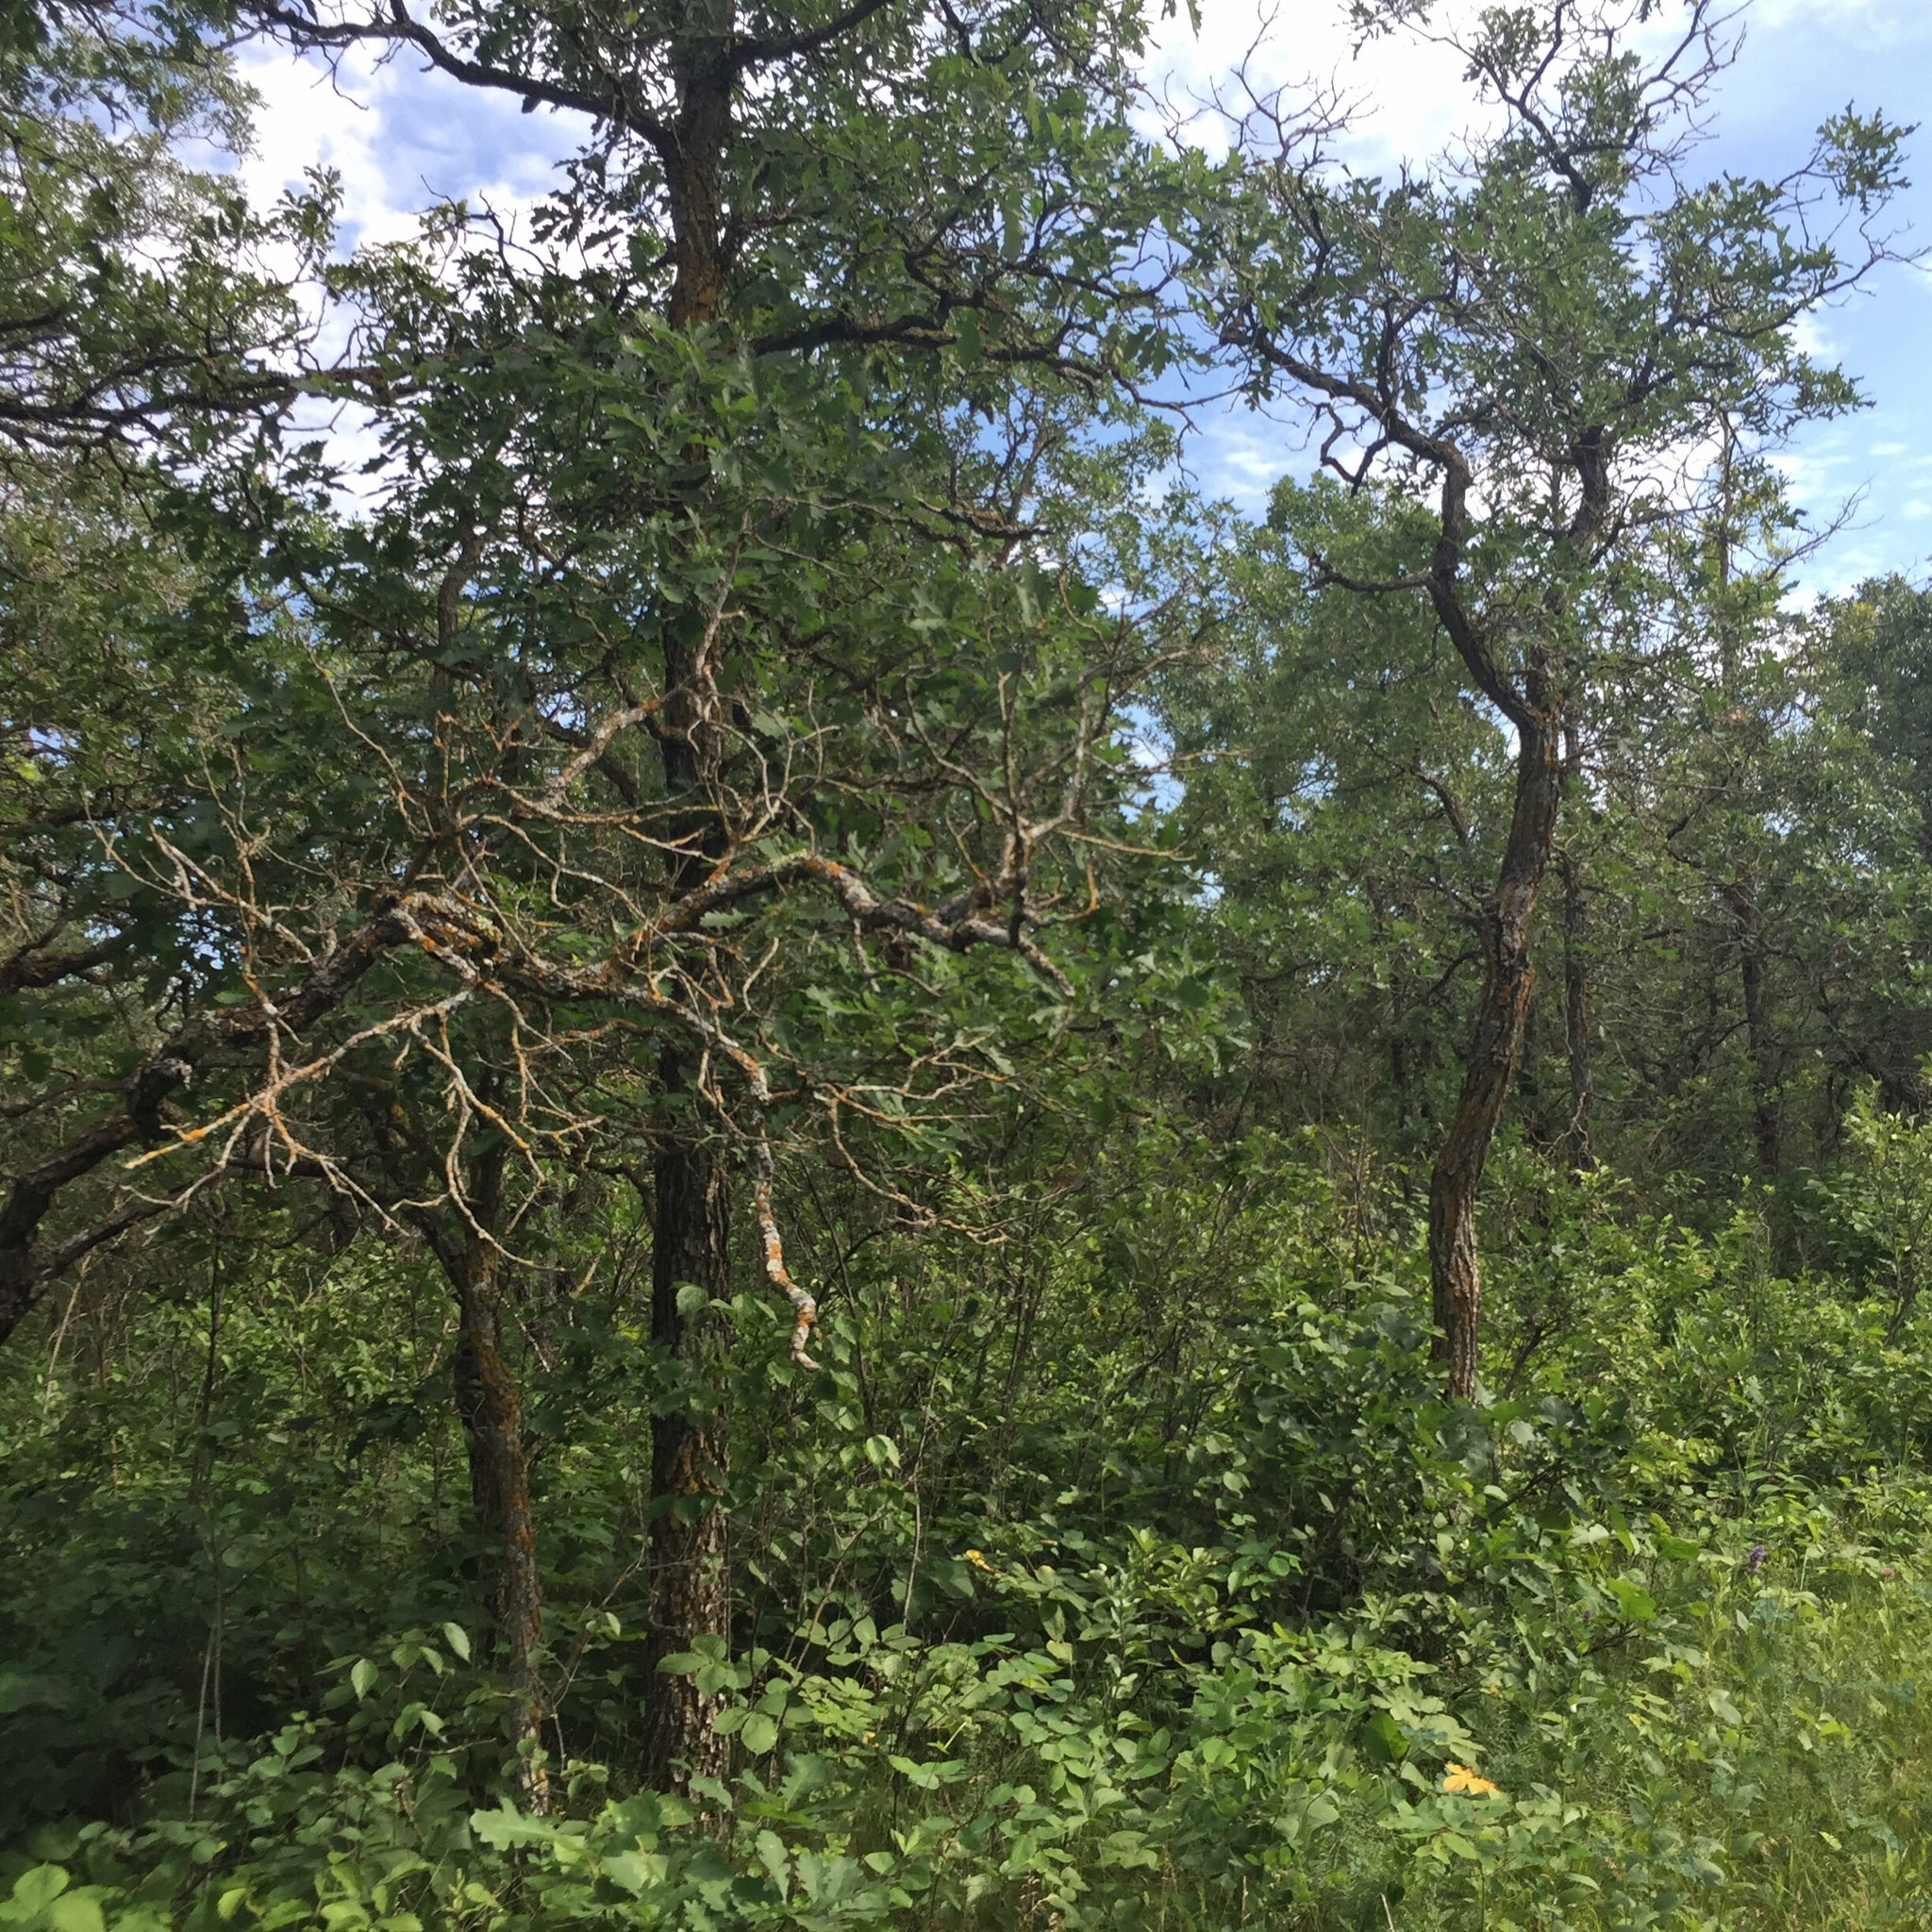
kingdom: Plantae
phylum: Tracheophyta
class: Magnoliopsida
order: Fagales
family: Fagaceae
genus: Quercus
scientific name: Quercus macrocarpa
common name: Bur oak
